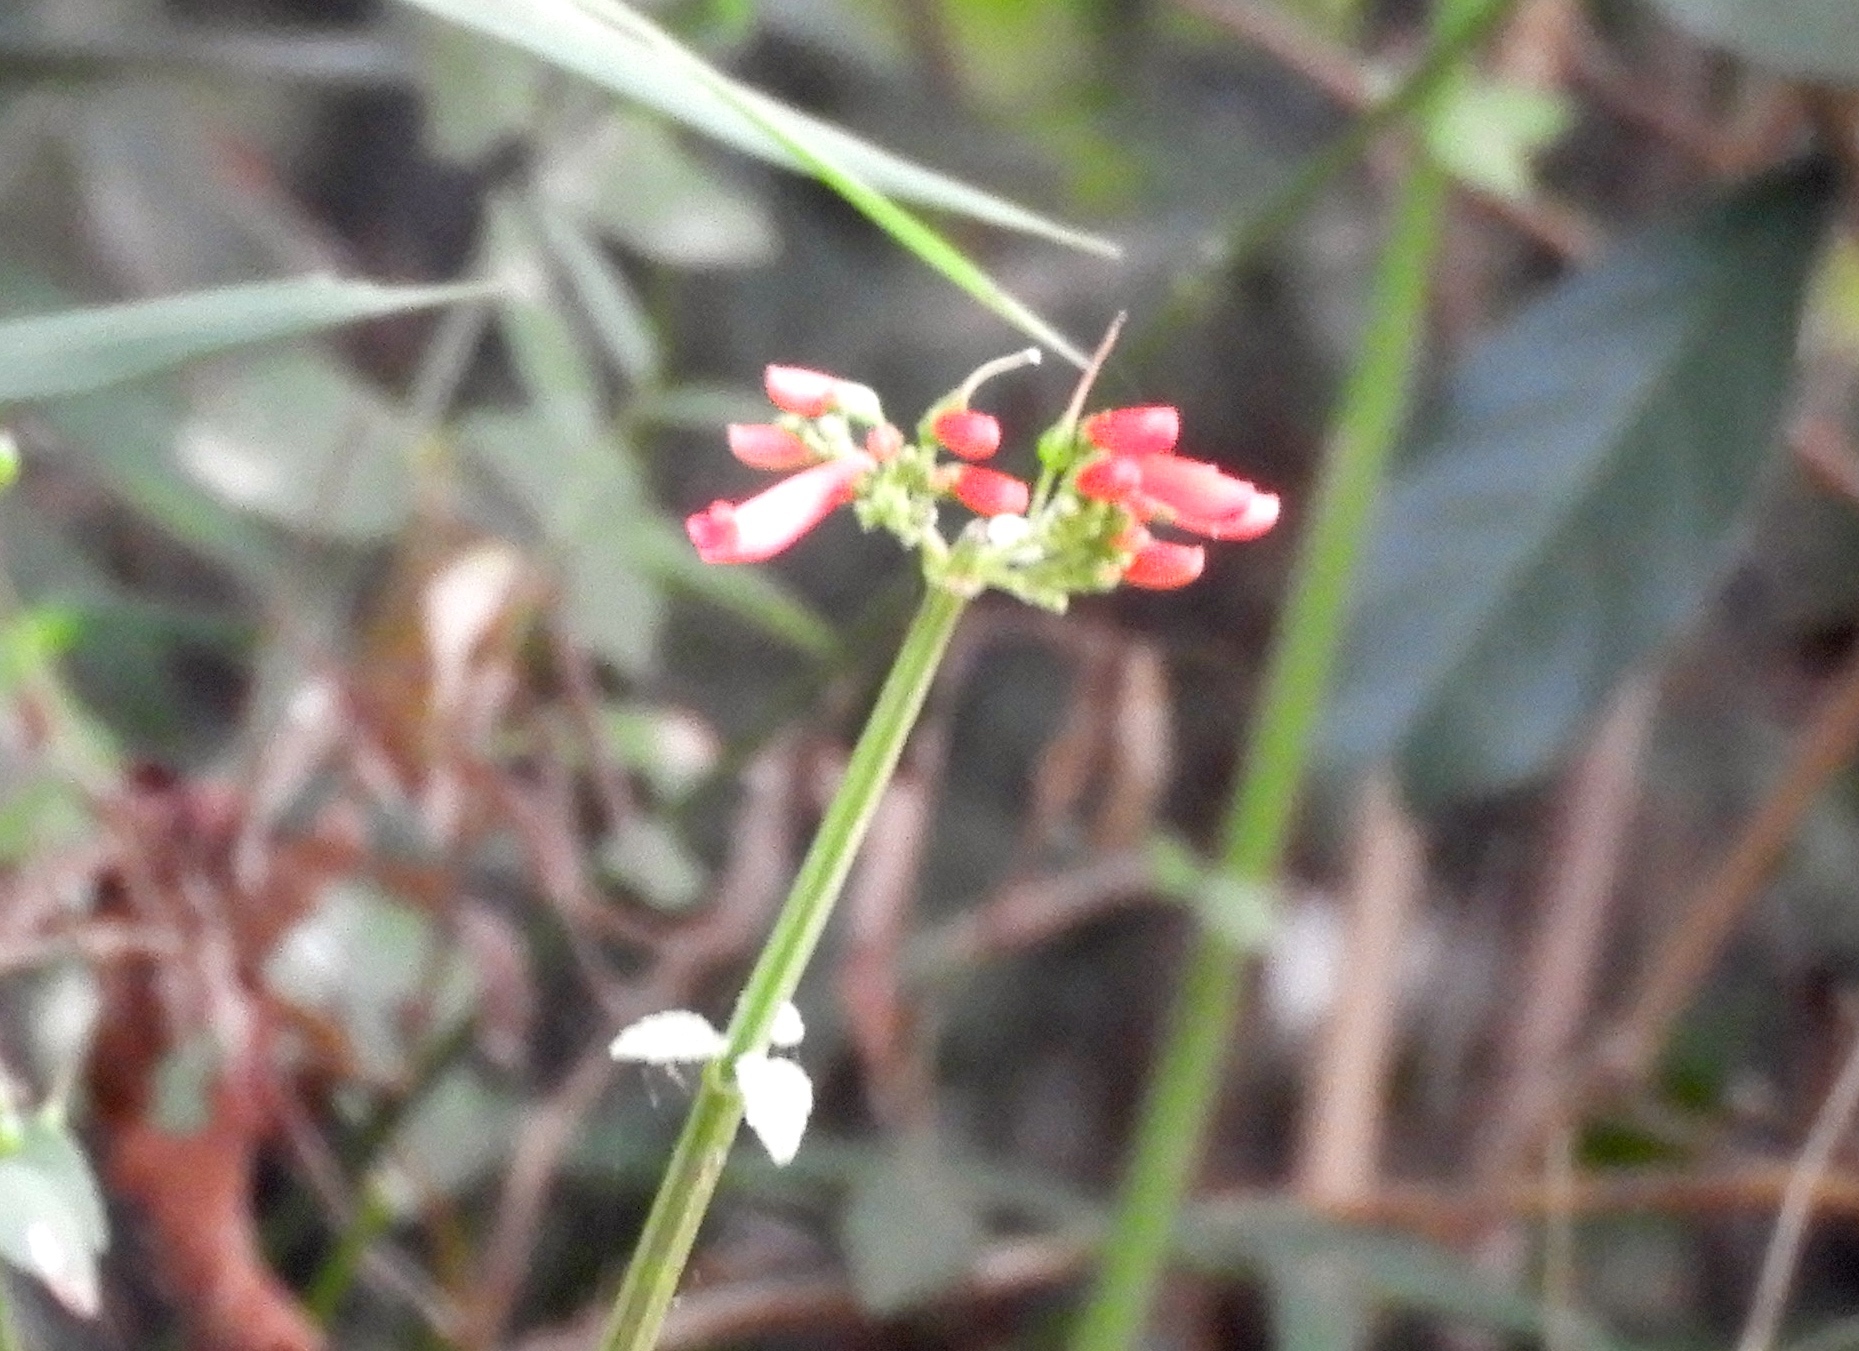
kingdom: Plantae
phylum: Tracheophyta
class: Magnoliopsida
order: Lamiales
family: Plantaginaceae
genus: Russelia
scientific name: Russelia tenuis
